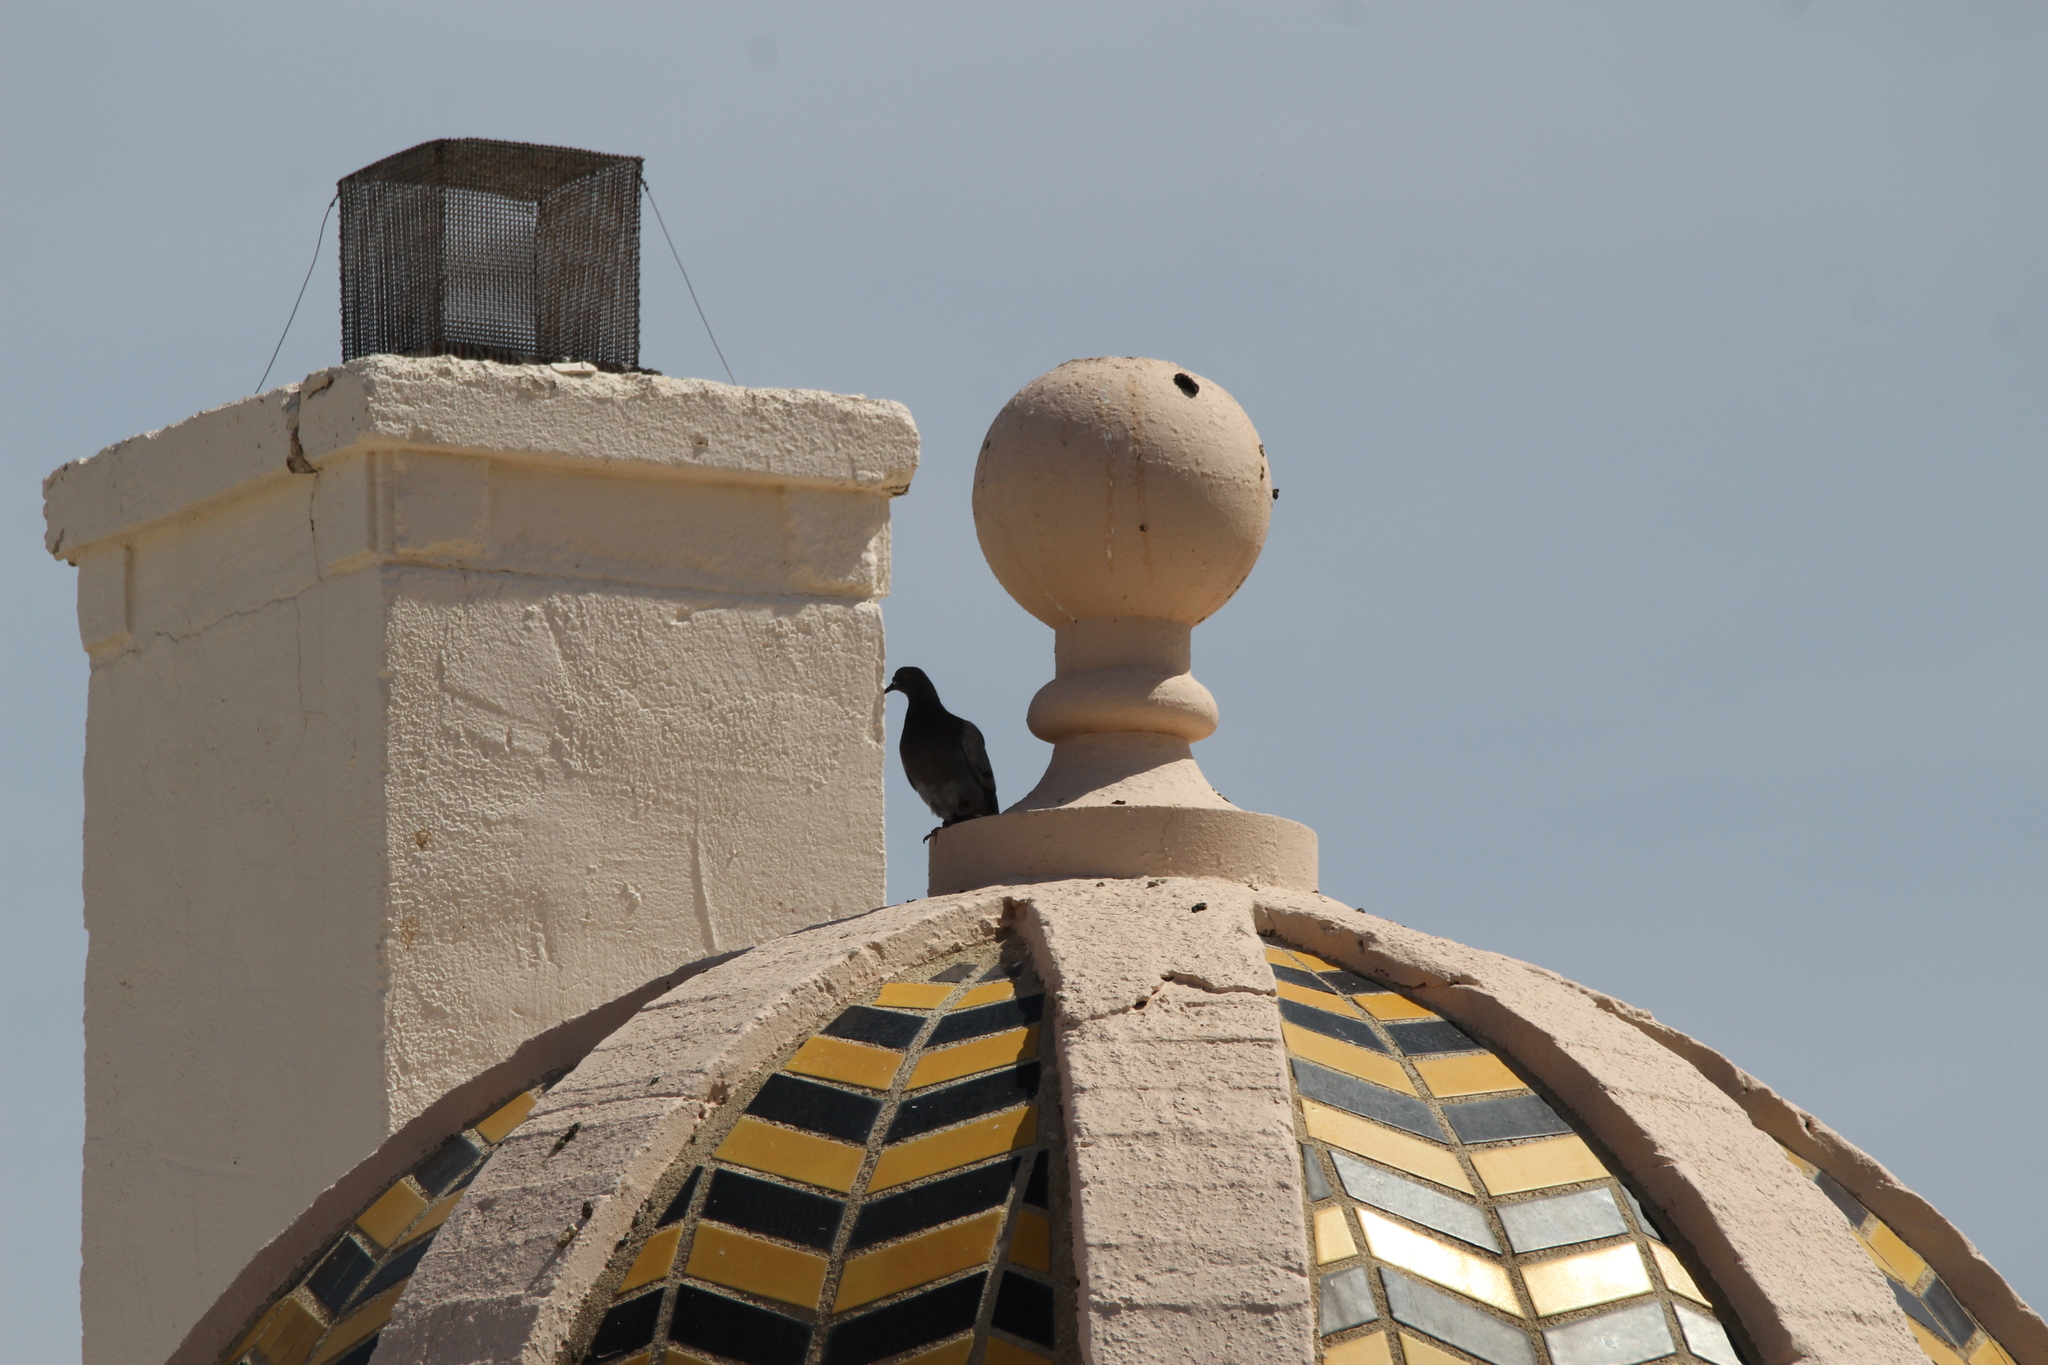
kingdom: Animalia
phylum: Chordata
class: Aves
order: Columbiformes
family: Columbidae
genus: Columba
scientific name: Columba livia
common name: Rock pigeon
